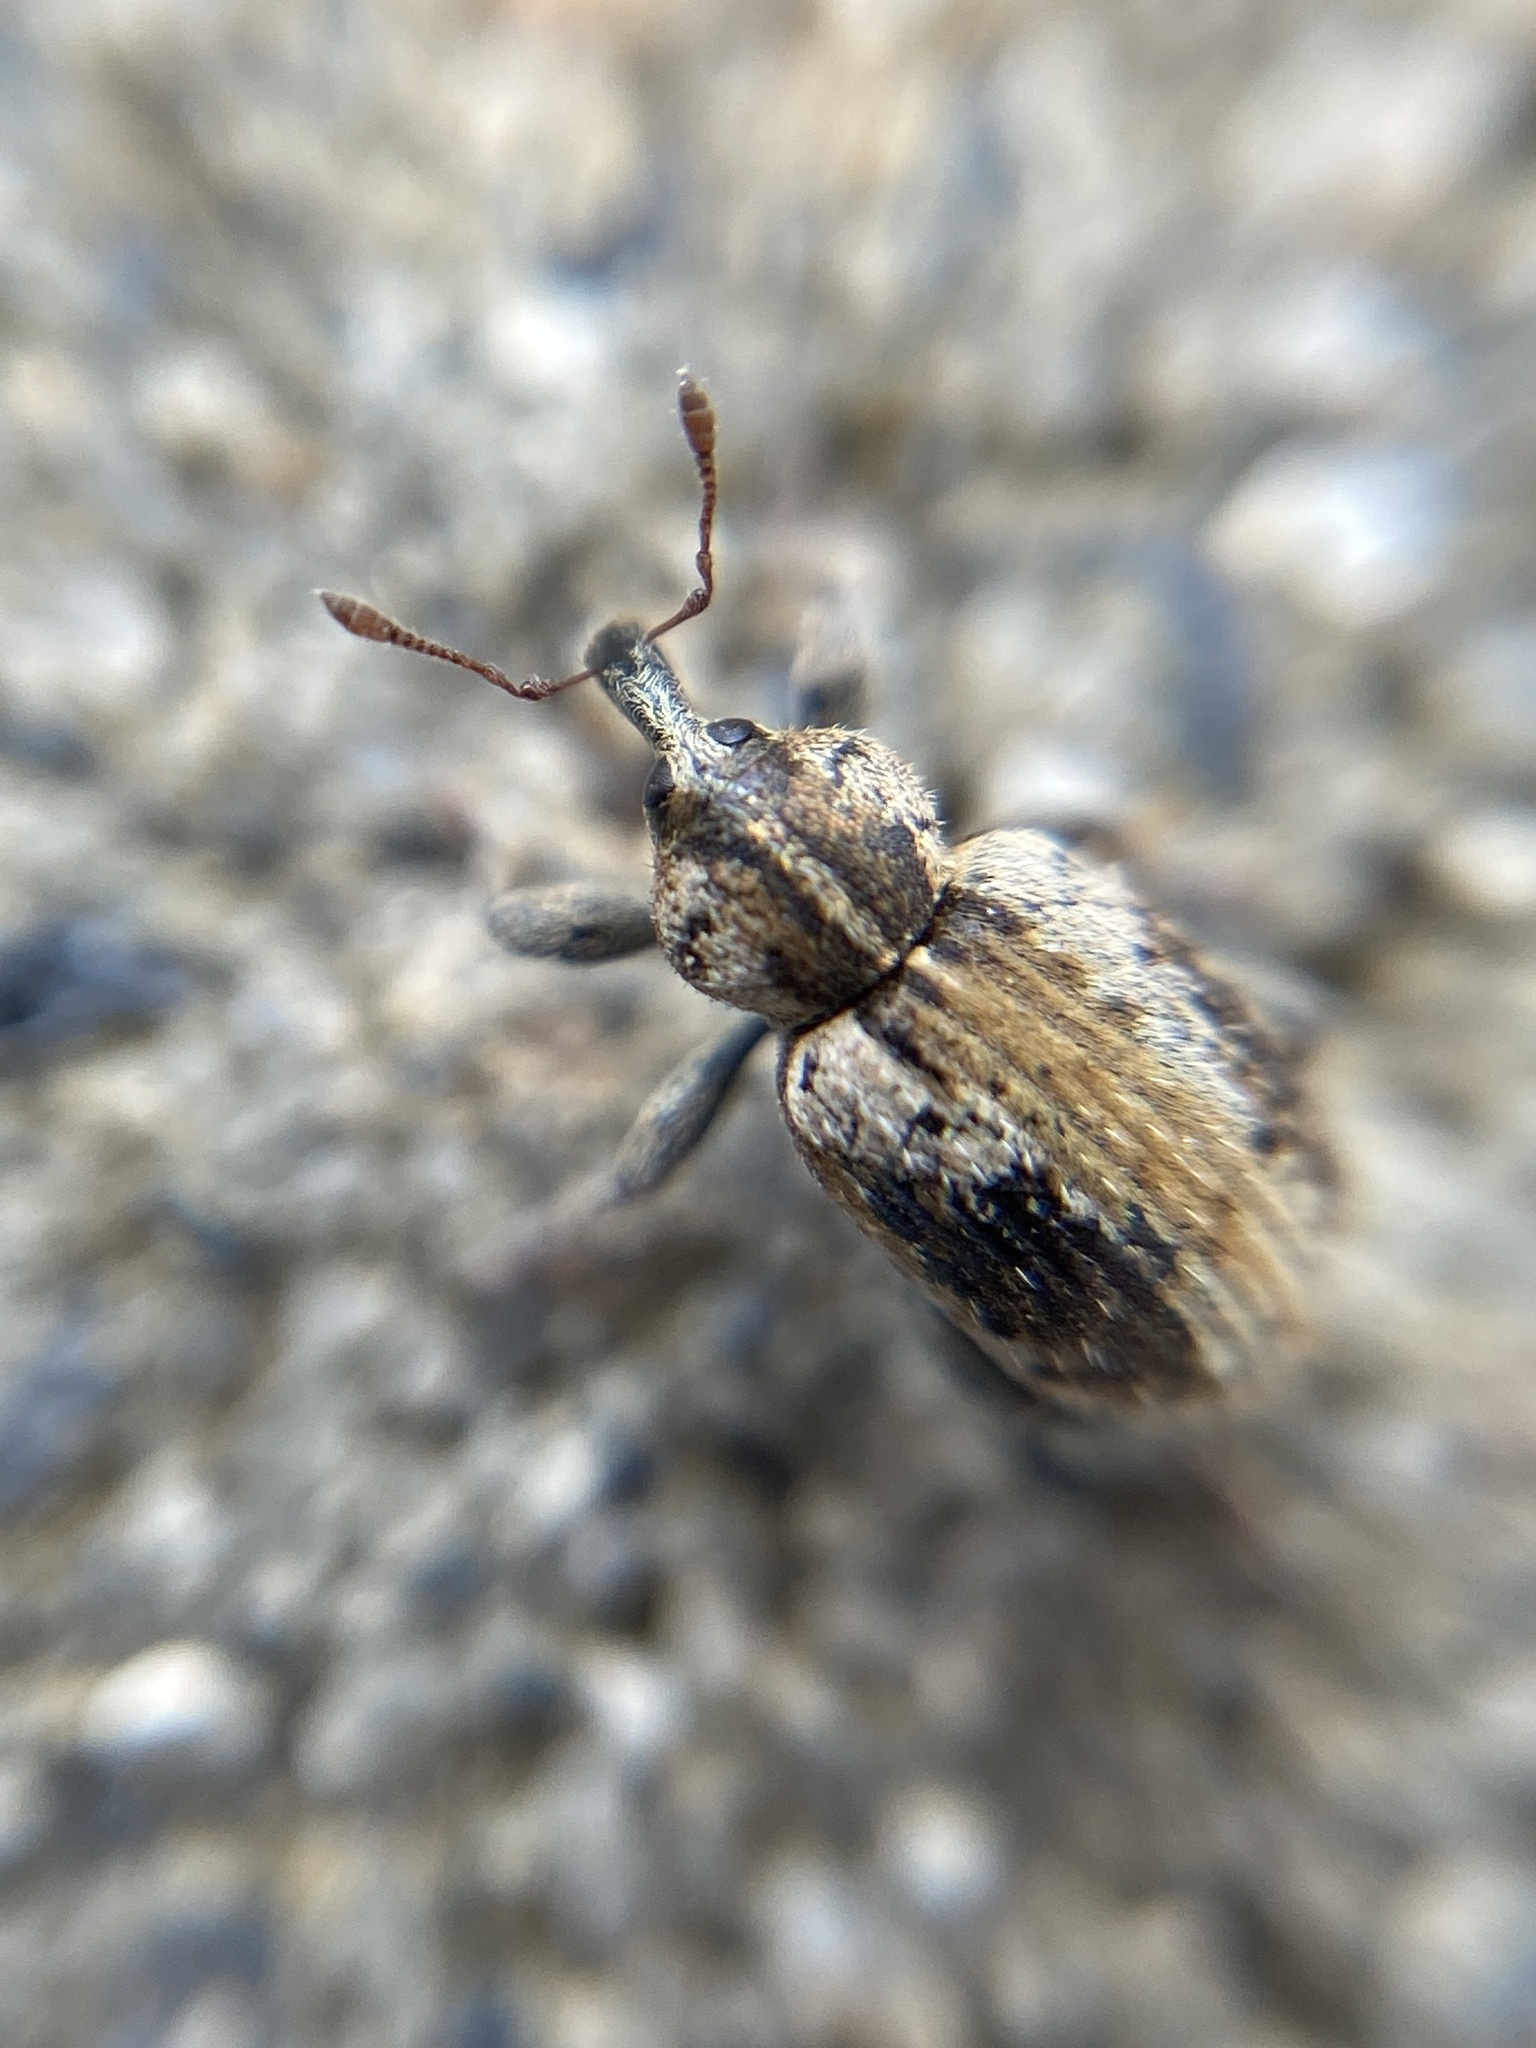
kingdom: Animalia
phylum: Arthropoda
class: Insecta
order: Coleoptera
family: Curculionidae
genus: Hypera
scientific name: Hypera plantaginis
